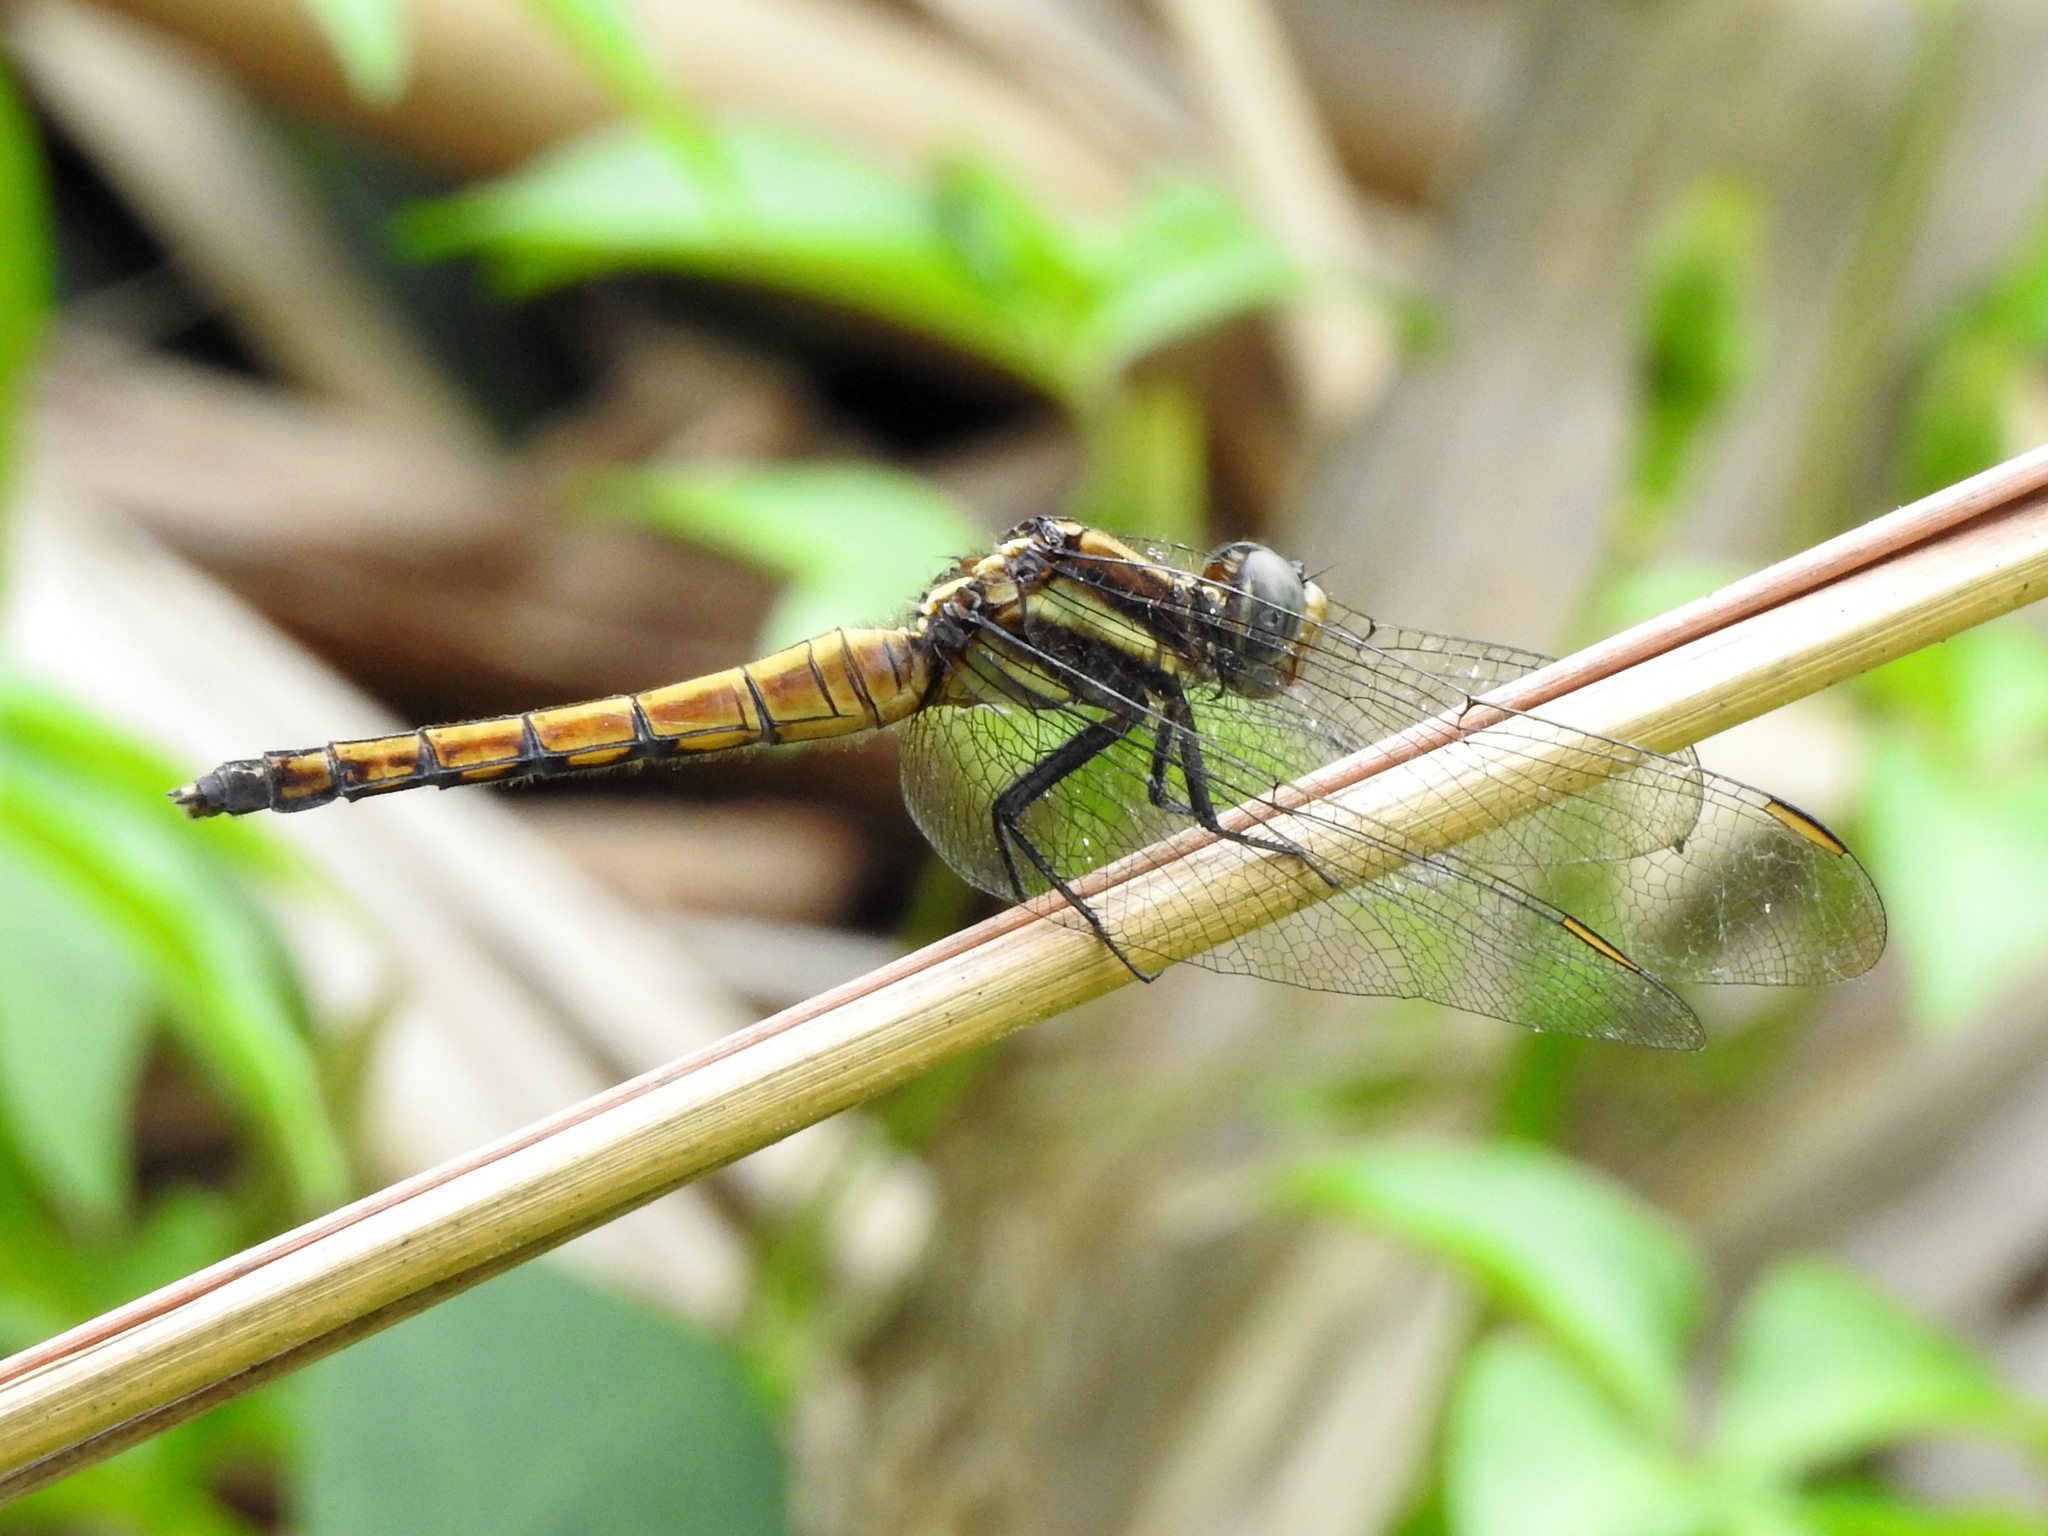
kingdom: Animalia
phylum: Arthropoda
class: Insecta
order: Odonata
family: Libellulidae
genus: Orthetrum
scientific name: Orthetrum glaucum
